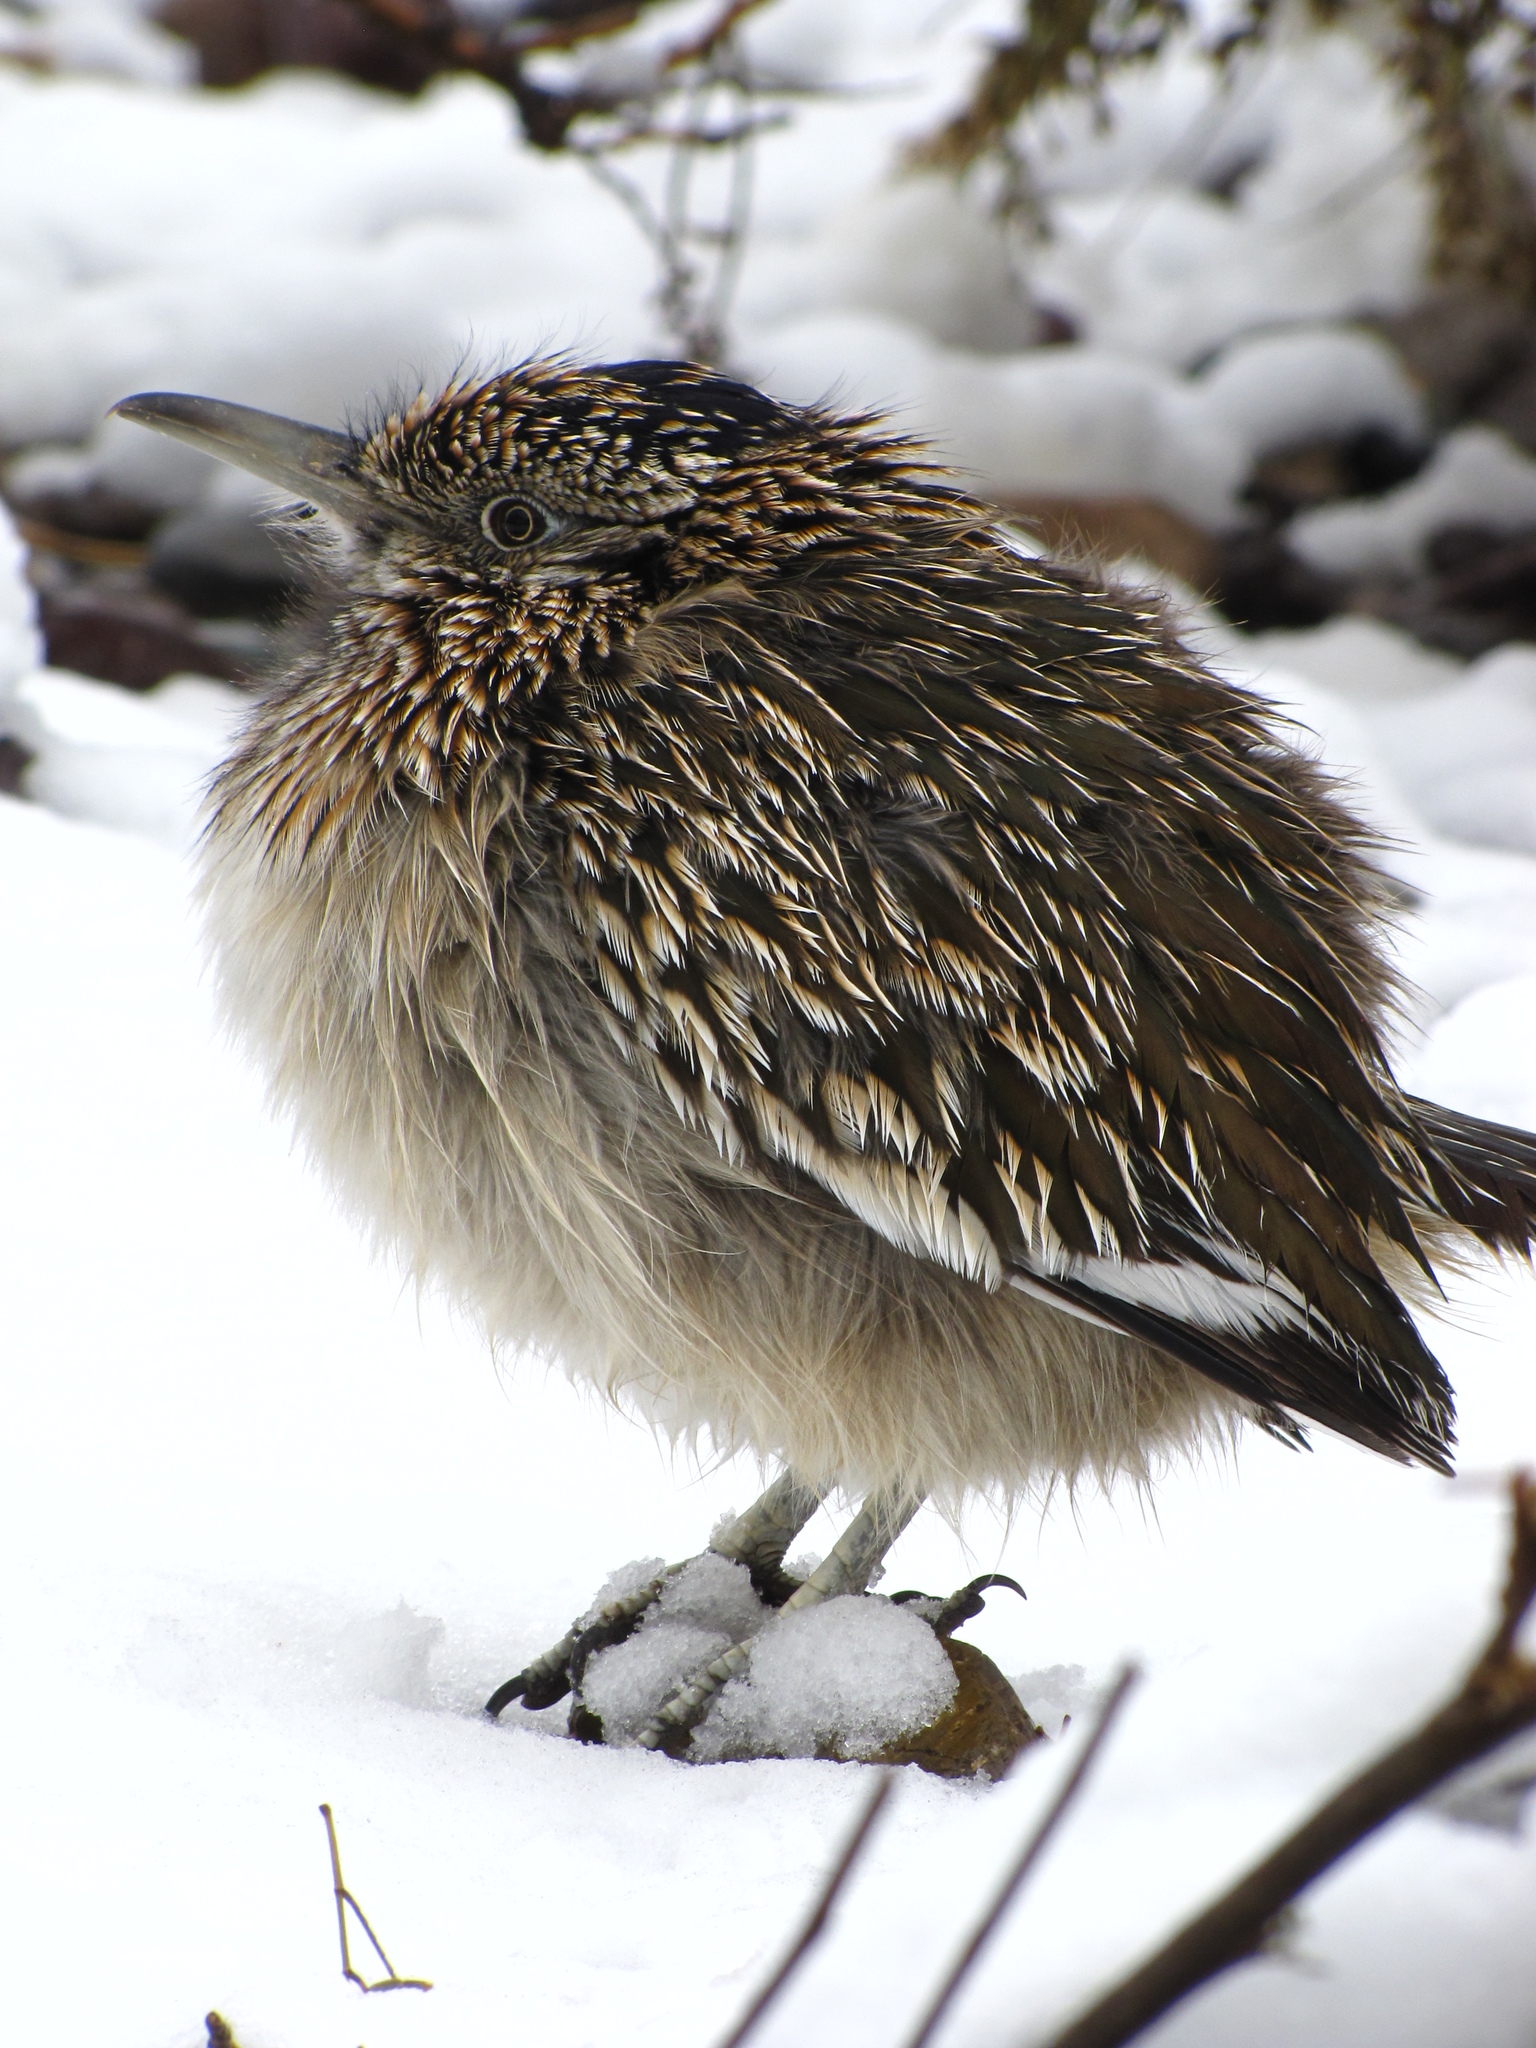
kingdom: Animalia
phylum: Chordata
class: Aves
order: Cuculiformes
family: Cuculidae
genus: Geococcyx
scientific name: Geococcyx californianus
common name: Greater roadrunner
